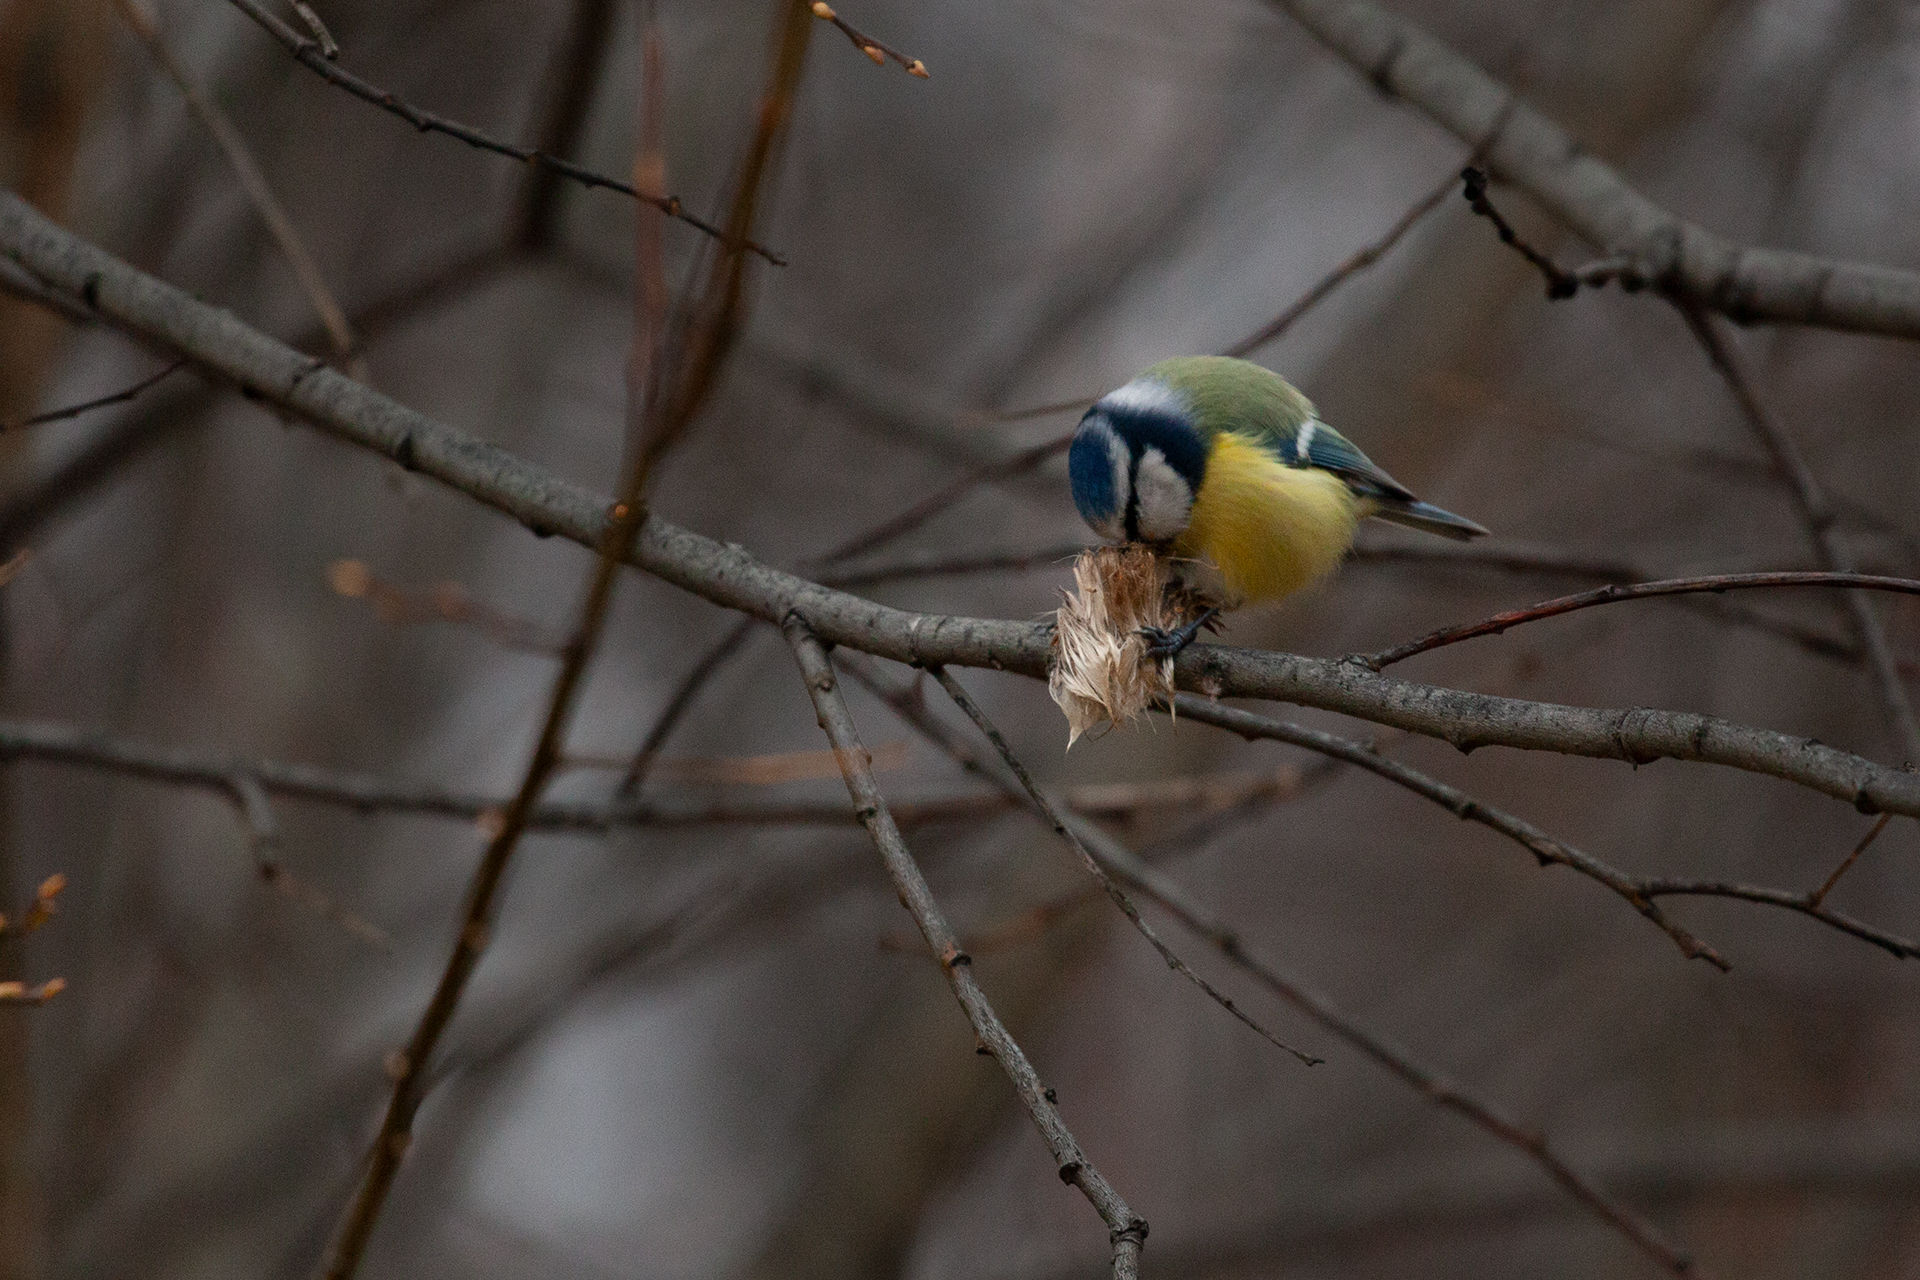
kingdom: Animalia
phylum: Chordata
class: Aves
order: Passeriformes
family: Paridae
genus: Cyanistes
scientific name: Cyanistes caeruleus
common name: Eurasian blue tit
